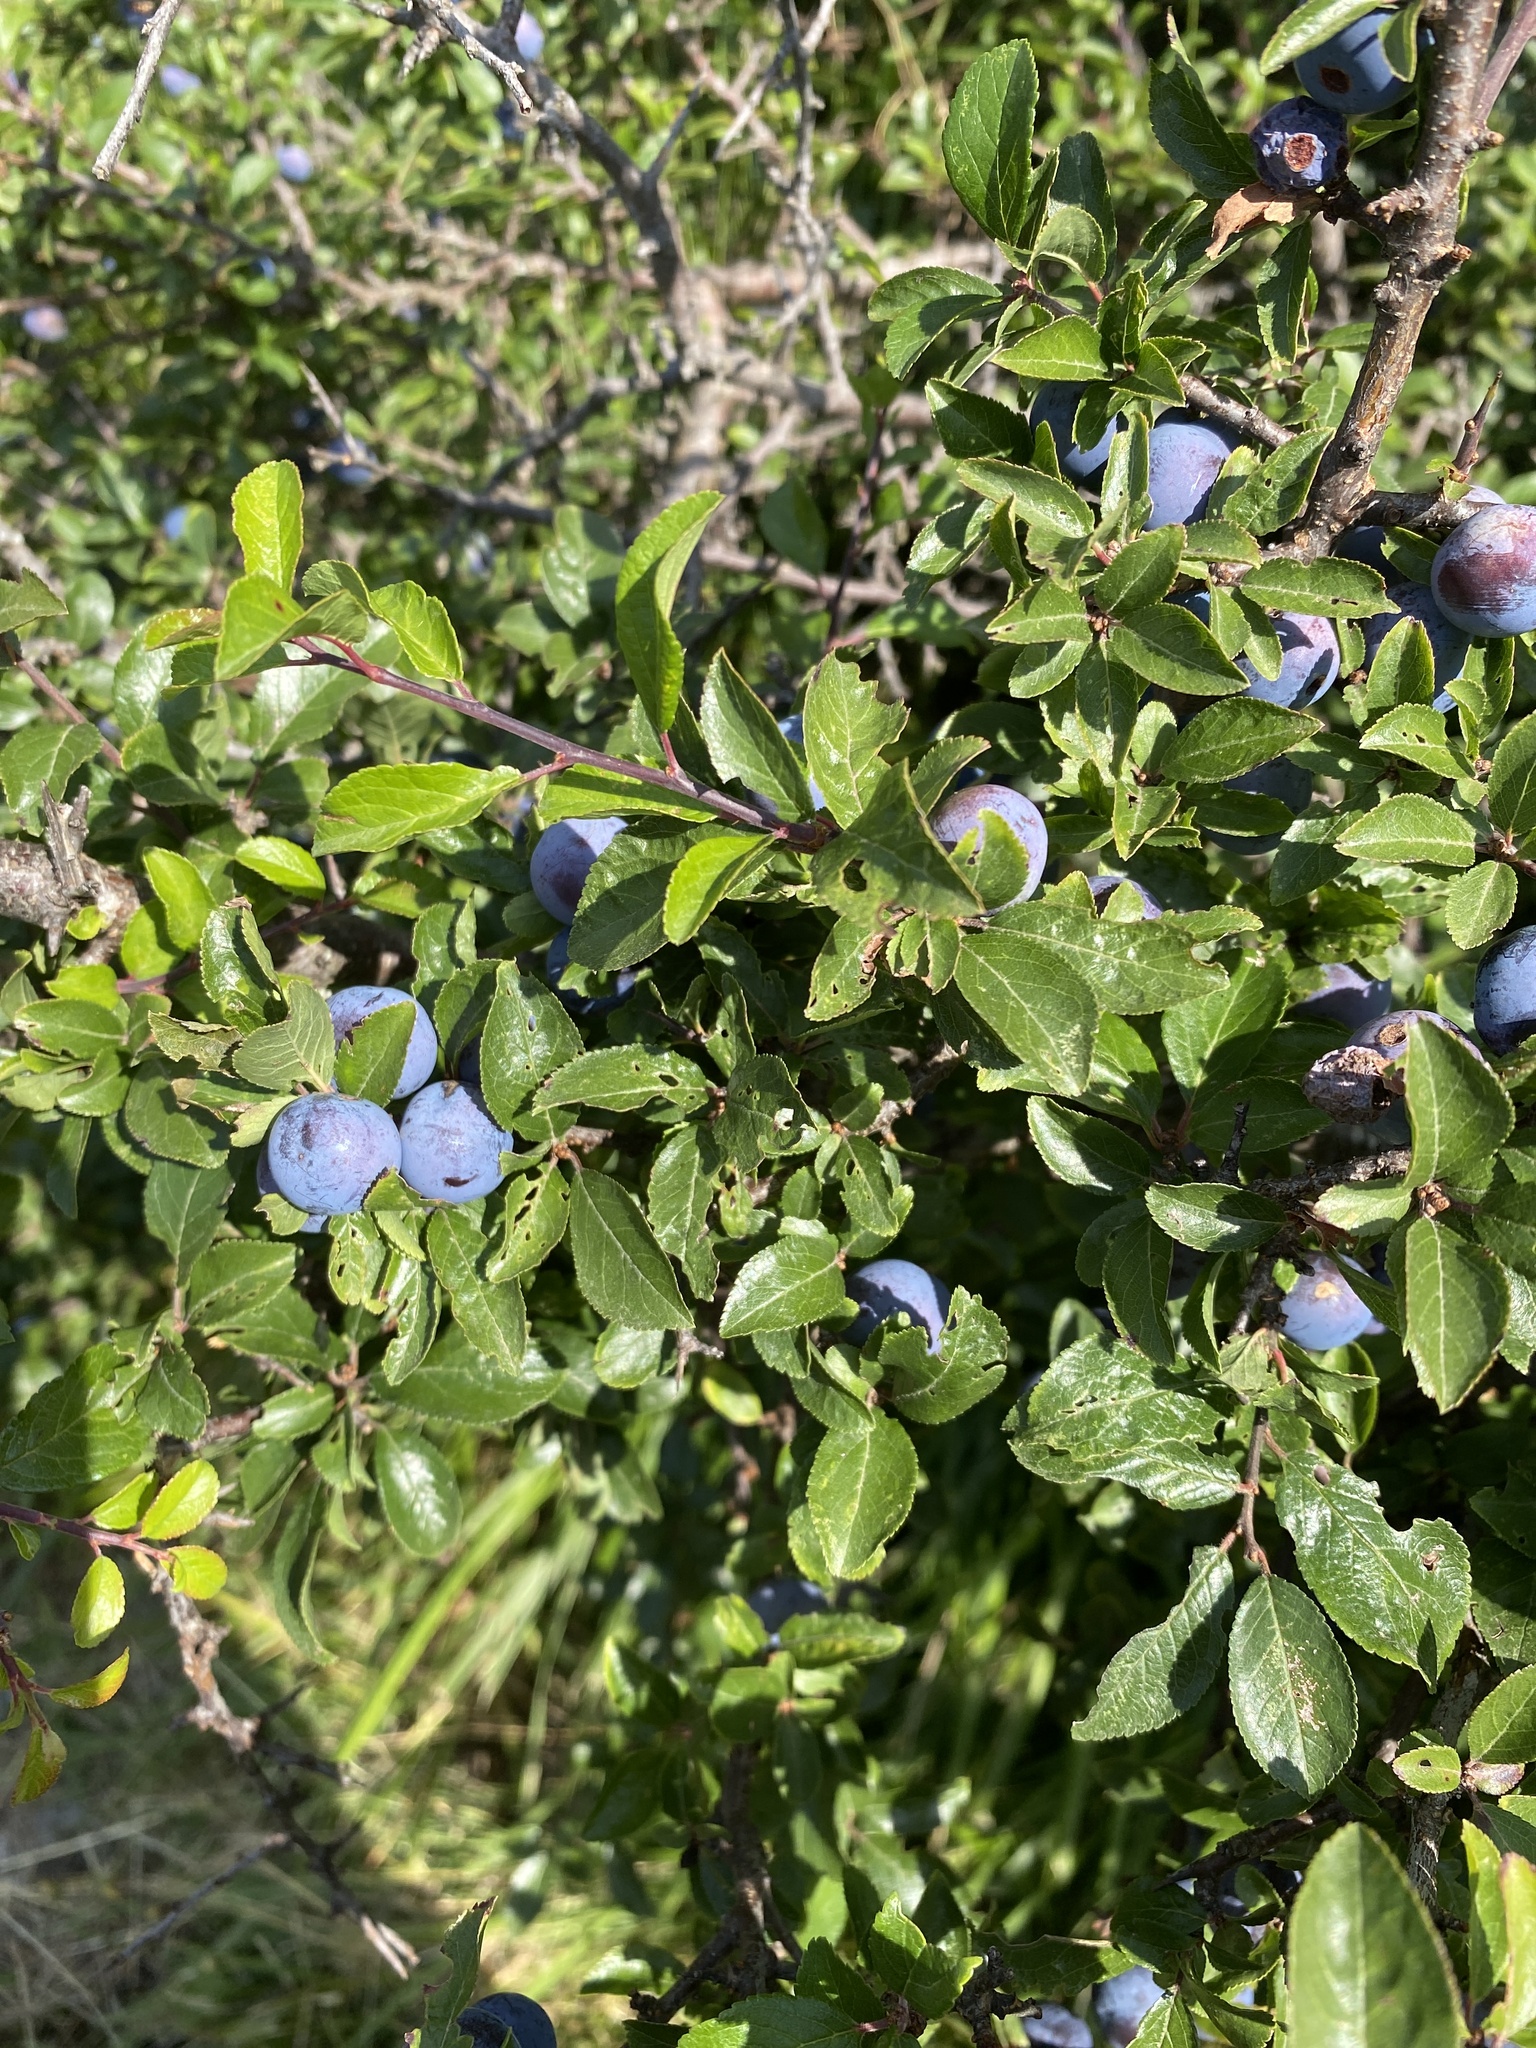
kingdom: Plantae
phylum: Tracheophyta
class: Magnoliopsida
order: Rosales
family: Rosaceae
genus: Prunus
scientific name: Prunus spinosa
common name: Blackthorn
